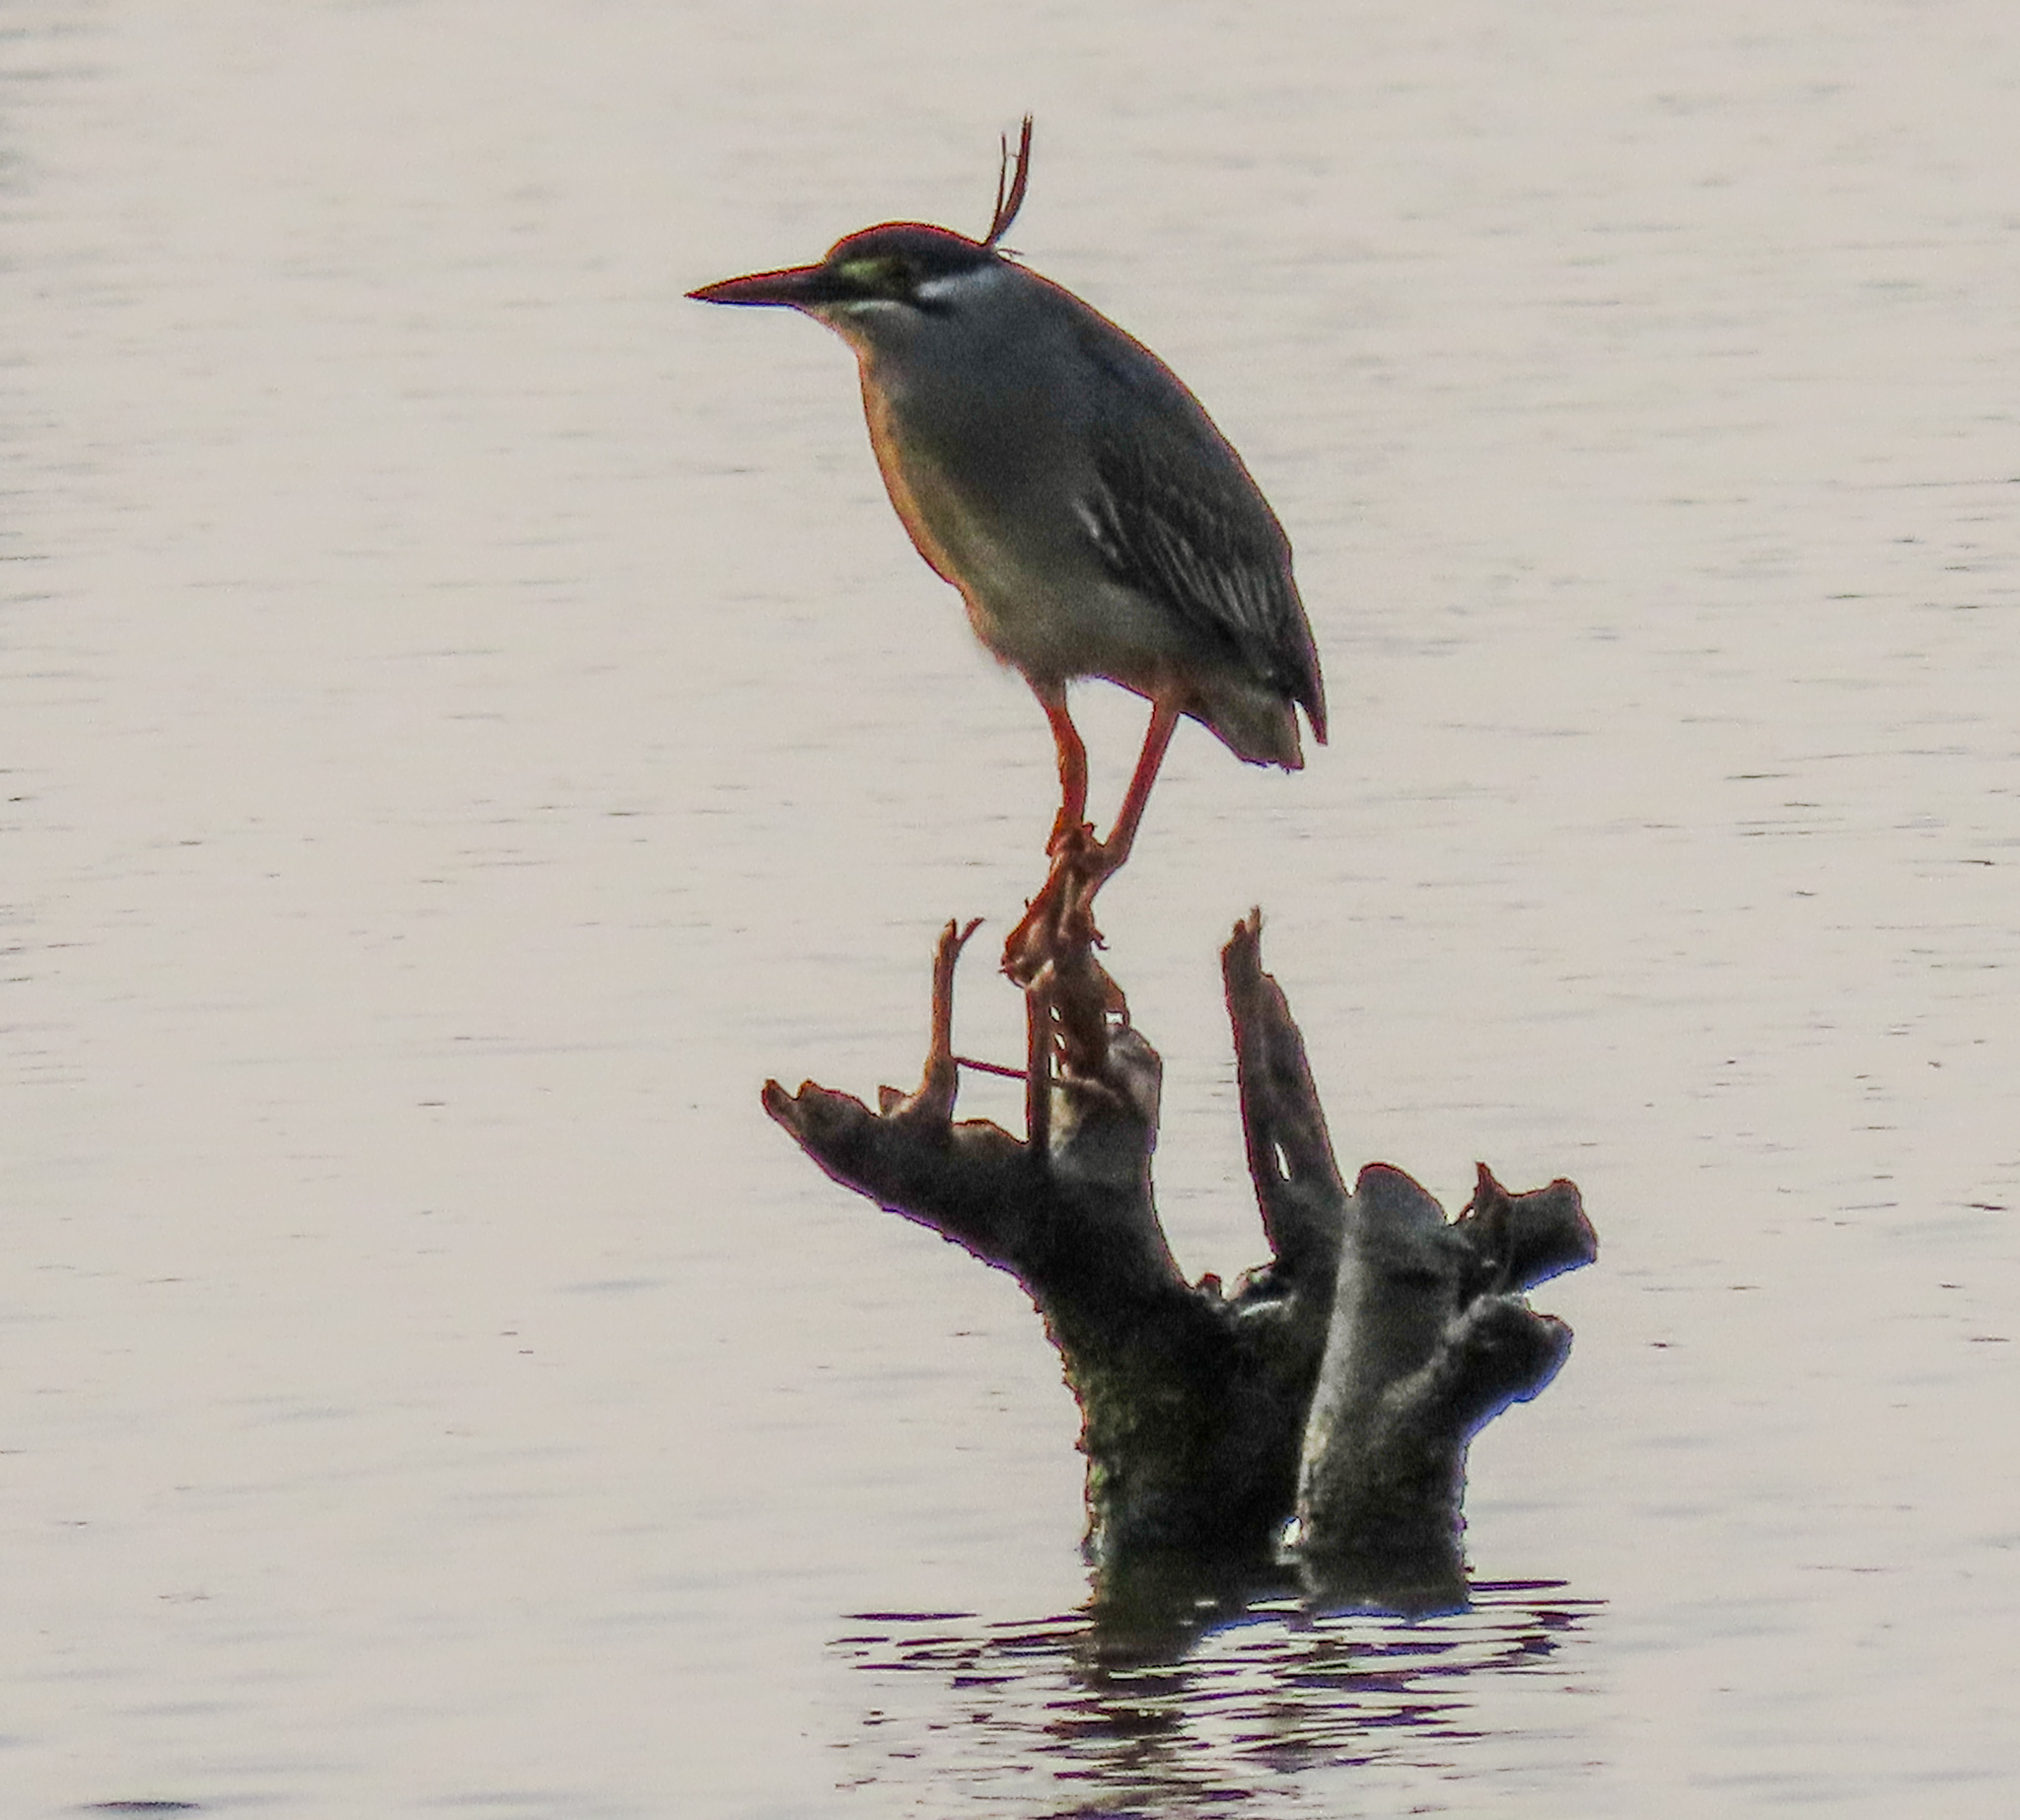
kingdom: Animalia
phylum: Chordata
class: Aves
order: Pelecaniformes
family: Ardeidae
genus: Butorides
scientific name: Butorides striata
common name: Striated heron
